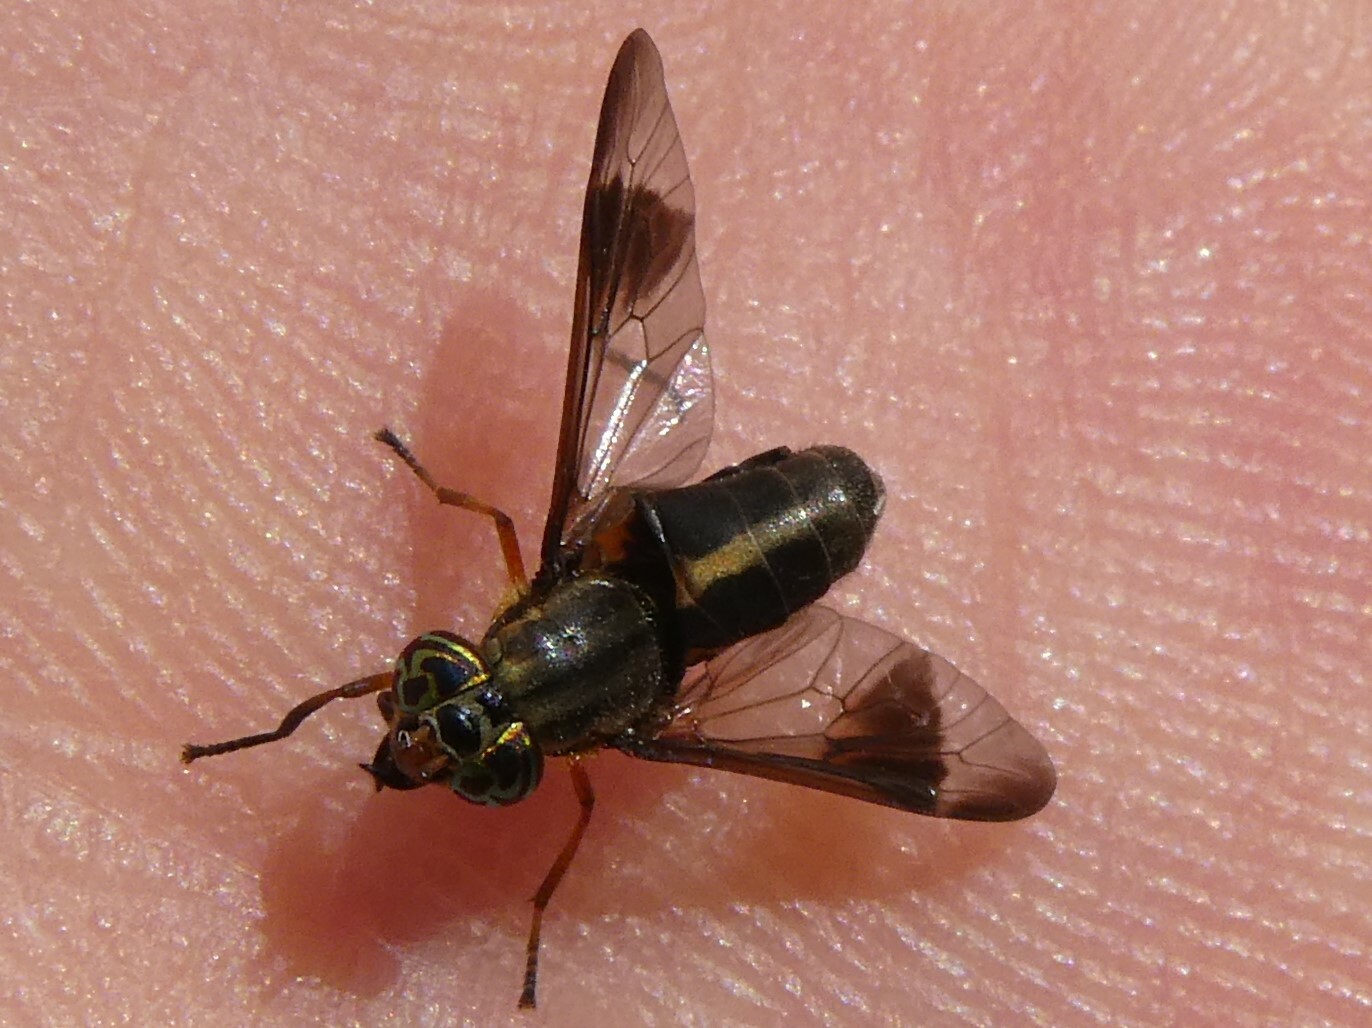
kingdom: Animalia
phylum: Arthropoda
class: Insecta
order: Diptera
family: Tabanidae
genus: Chrysops
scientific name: Chrysops univittatus
